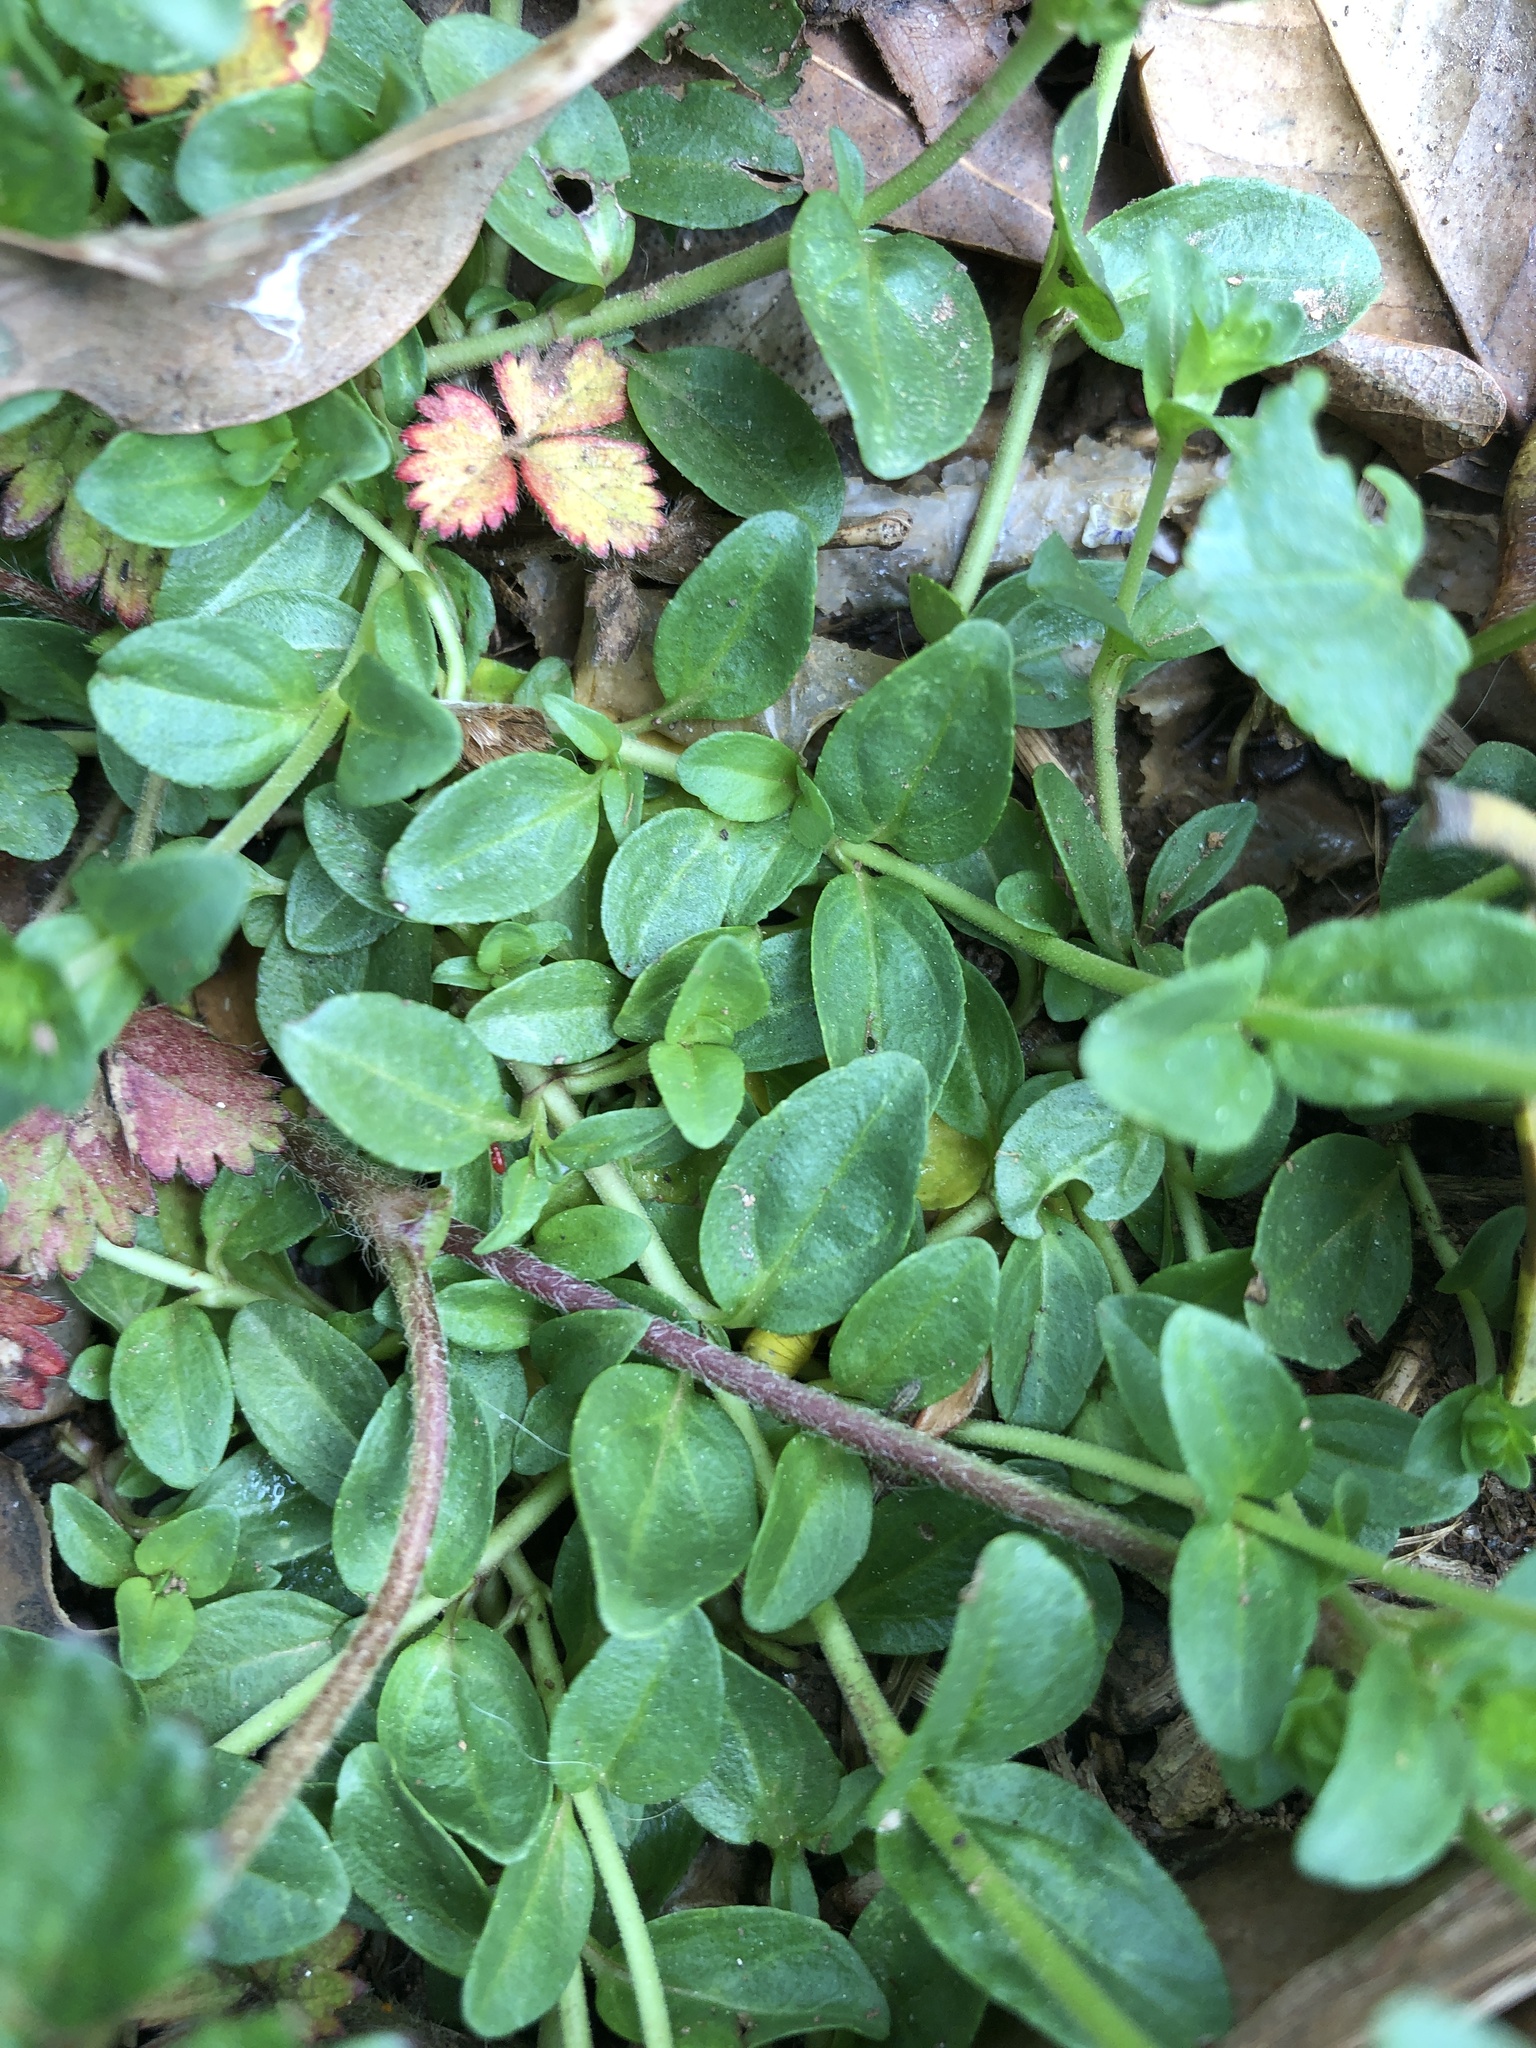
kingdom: Plantae
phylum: Tracheophyta
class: Magnoliopsida
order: Lamiales
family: Plantaginaceae
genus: Veronica
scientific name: Veronica serpyllifolia
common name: Thyme-leaved speedwell
